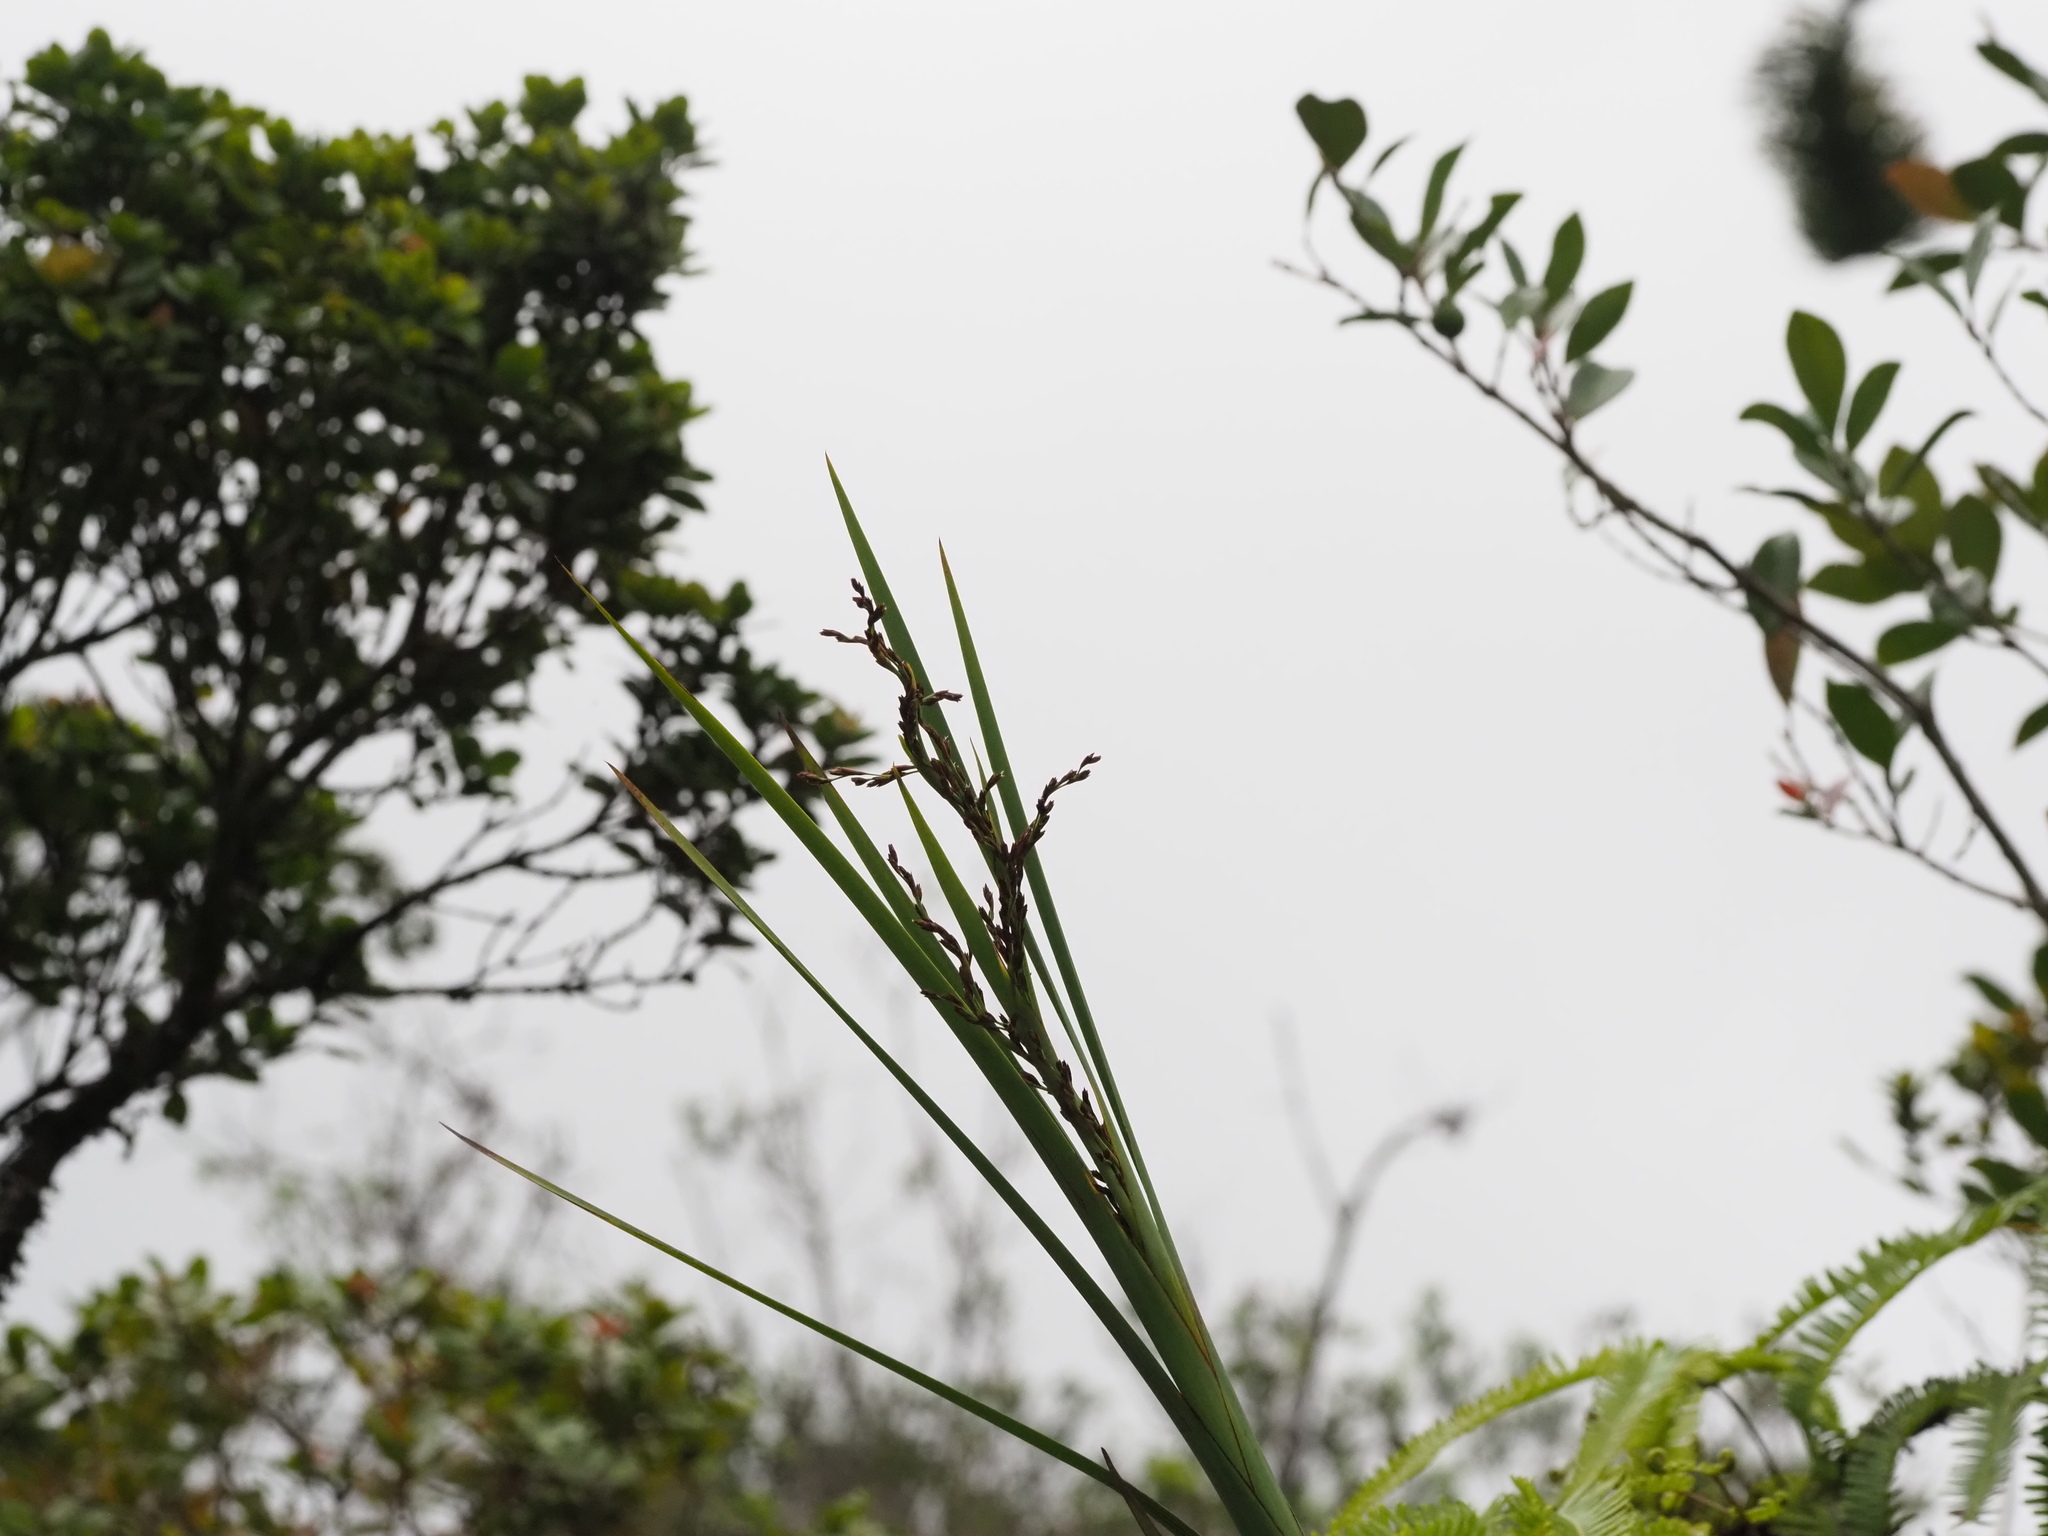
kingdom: Plantae
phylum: Tracheophyta
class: Liliopsida
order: Poales
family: Cyperaceae
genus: Machaerina
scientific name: Machaerina mariscoides
